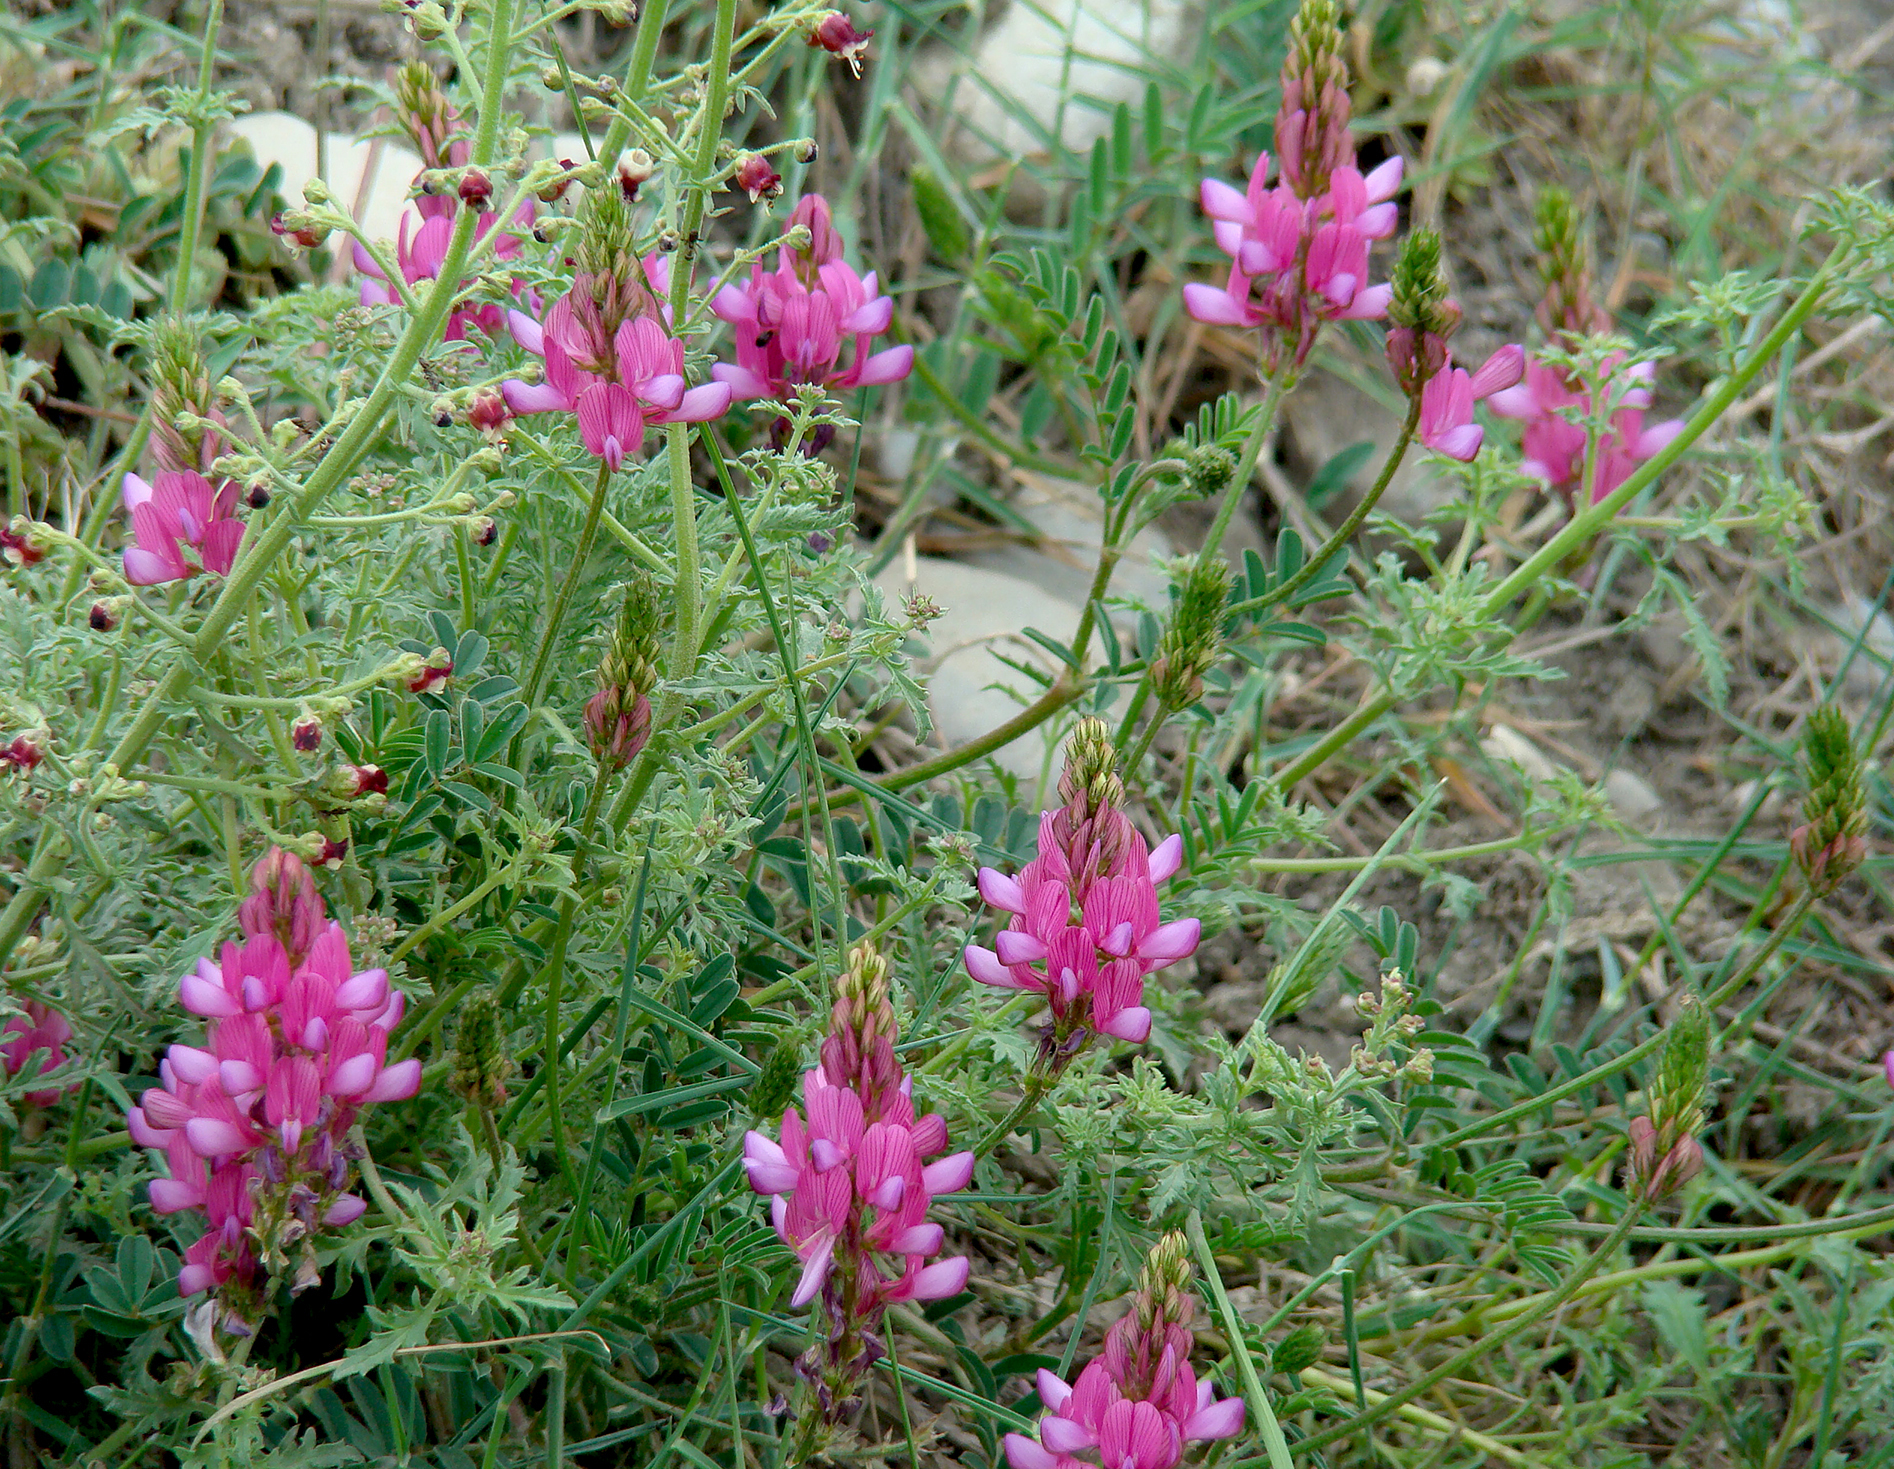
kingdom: Plantae
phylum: Tracheophyta
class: Magnoliopsida
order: Fabales
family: Fabaceae
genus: Onobrychis
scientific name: Onobrychis viciifolia
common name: Sainfoin
